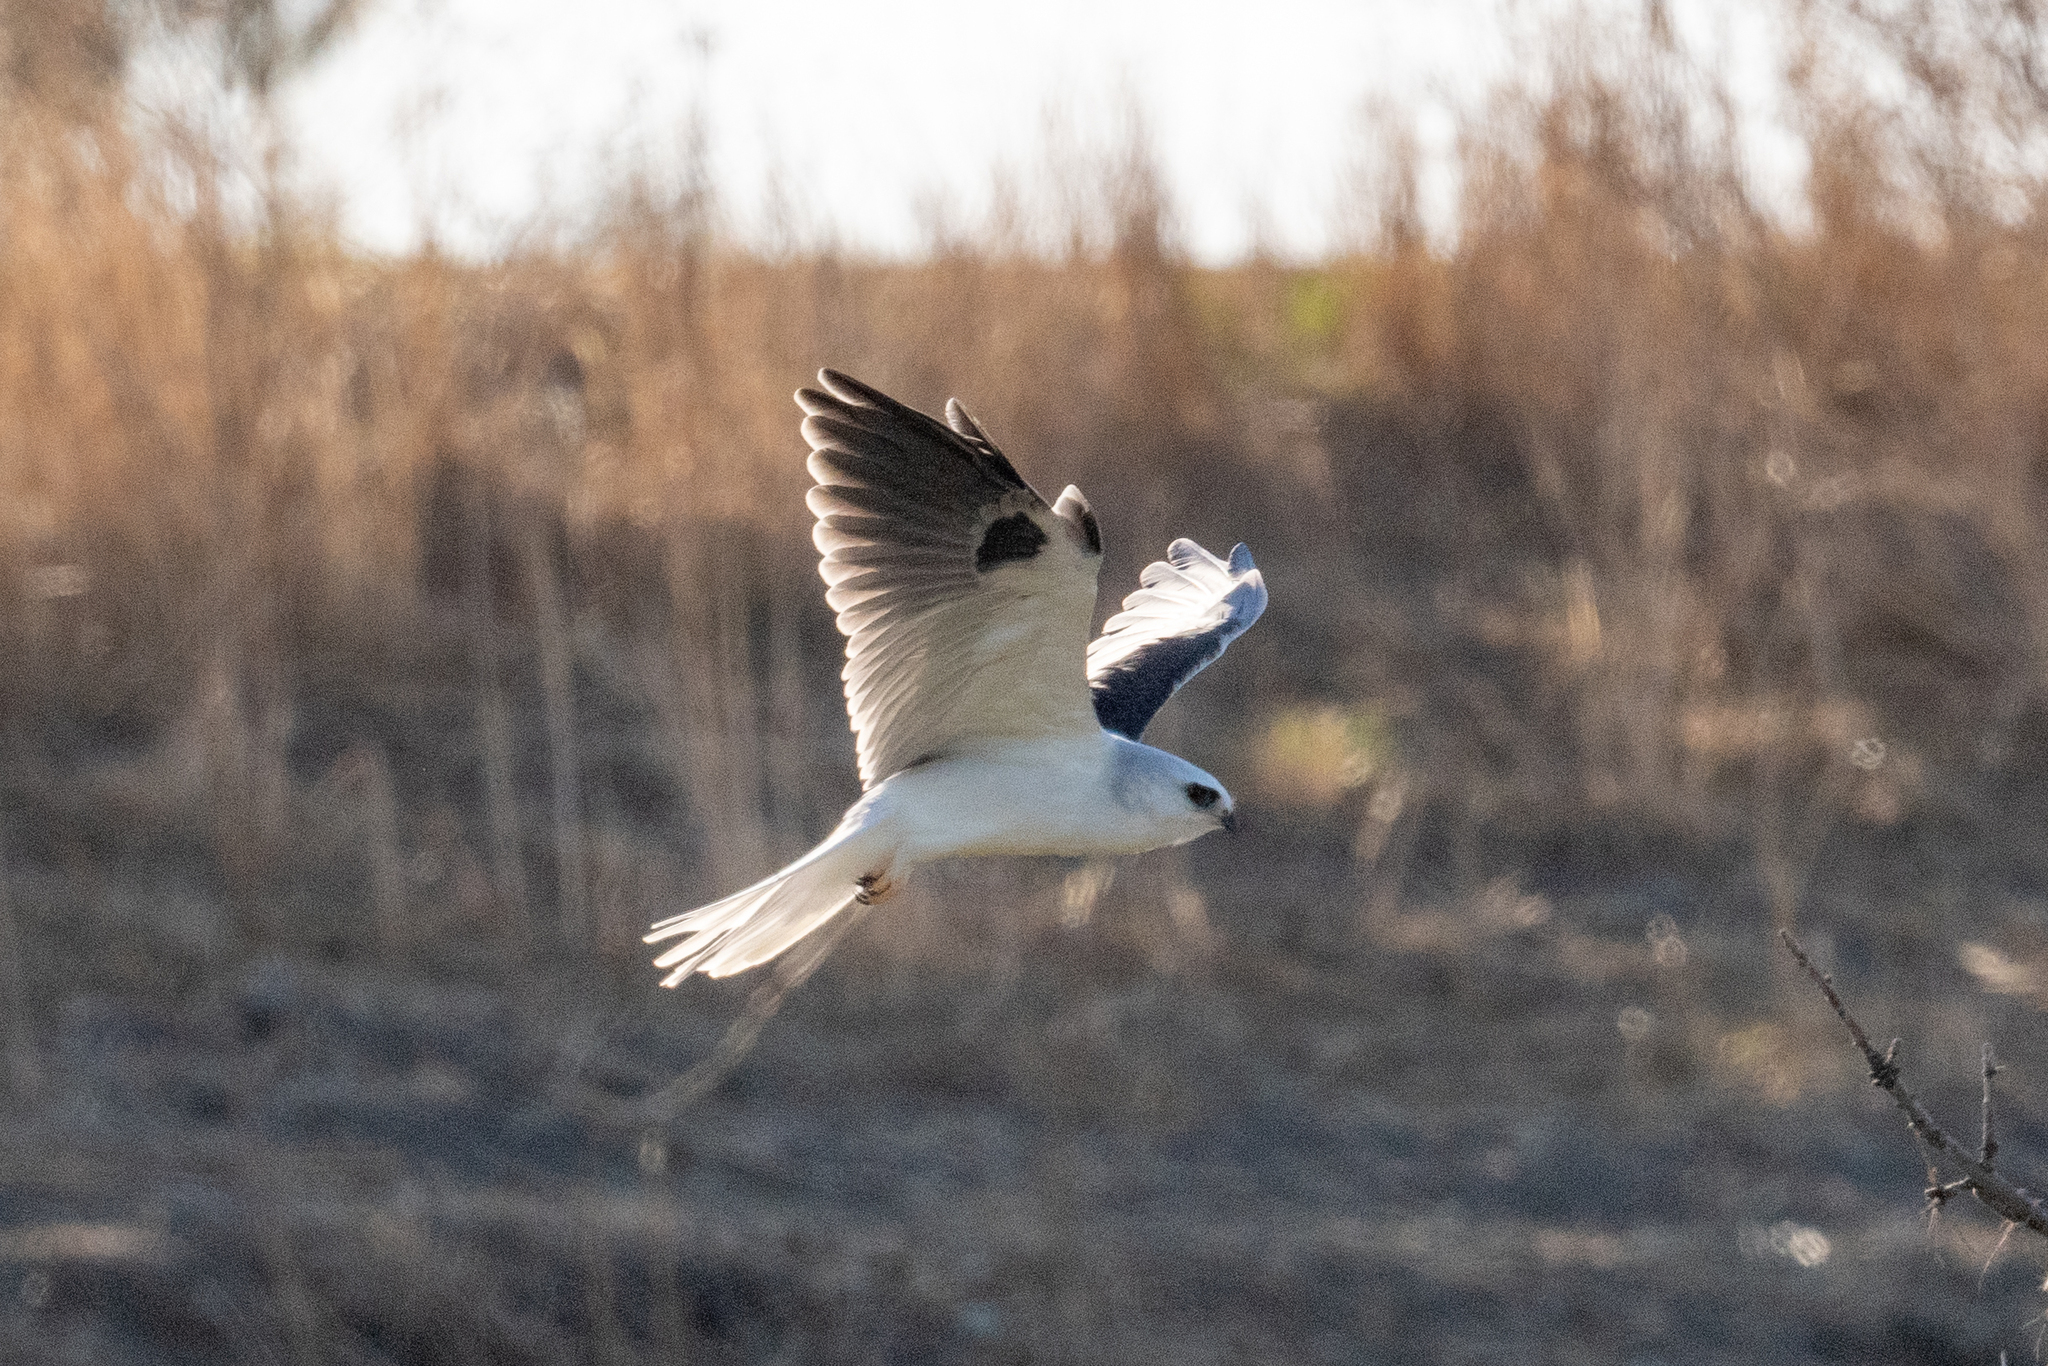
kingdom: Animalia
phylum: Chordata
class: Aves
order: Accipitriformes
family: Accipitridae
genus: Elanus
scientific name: Elanus leucurus
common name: White-tailed kite
